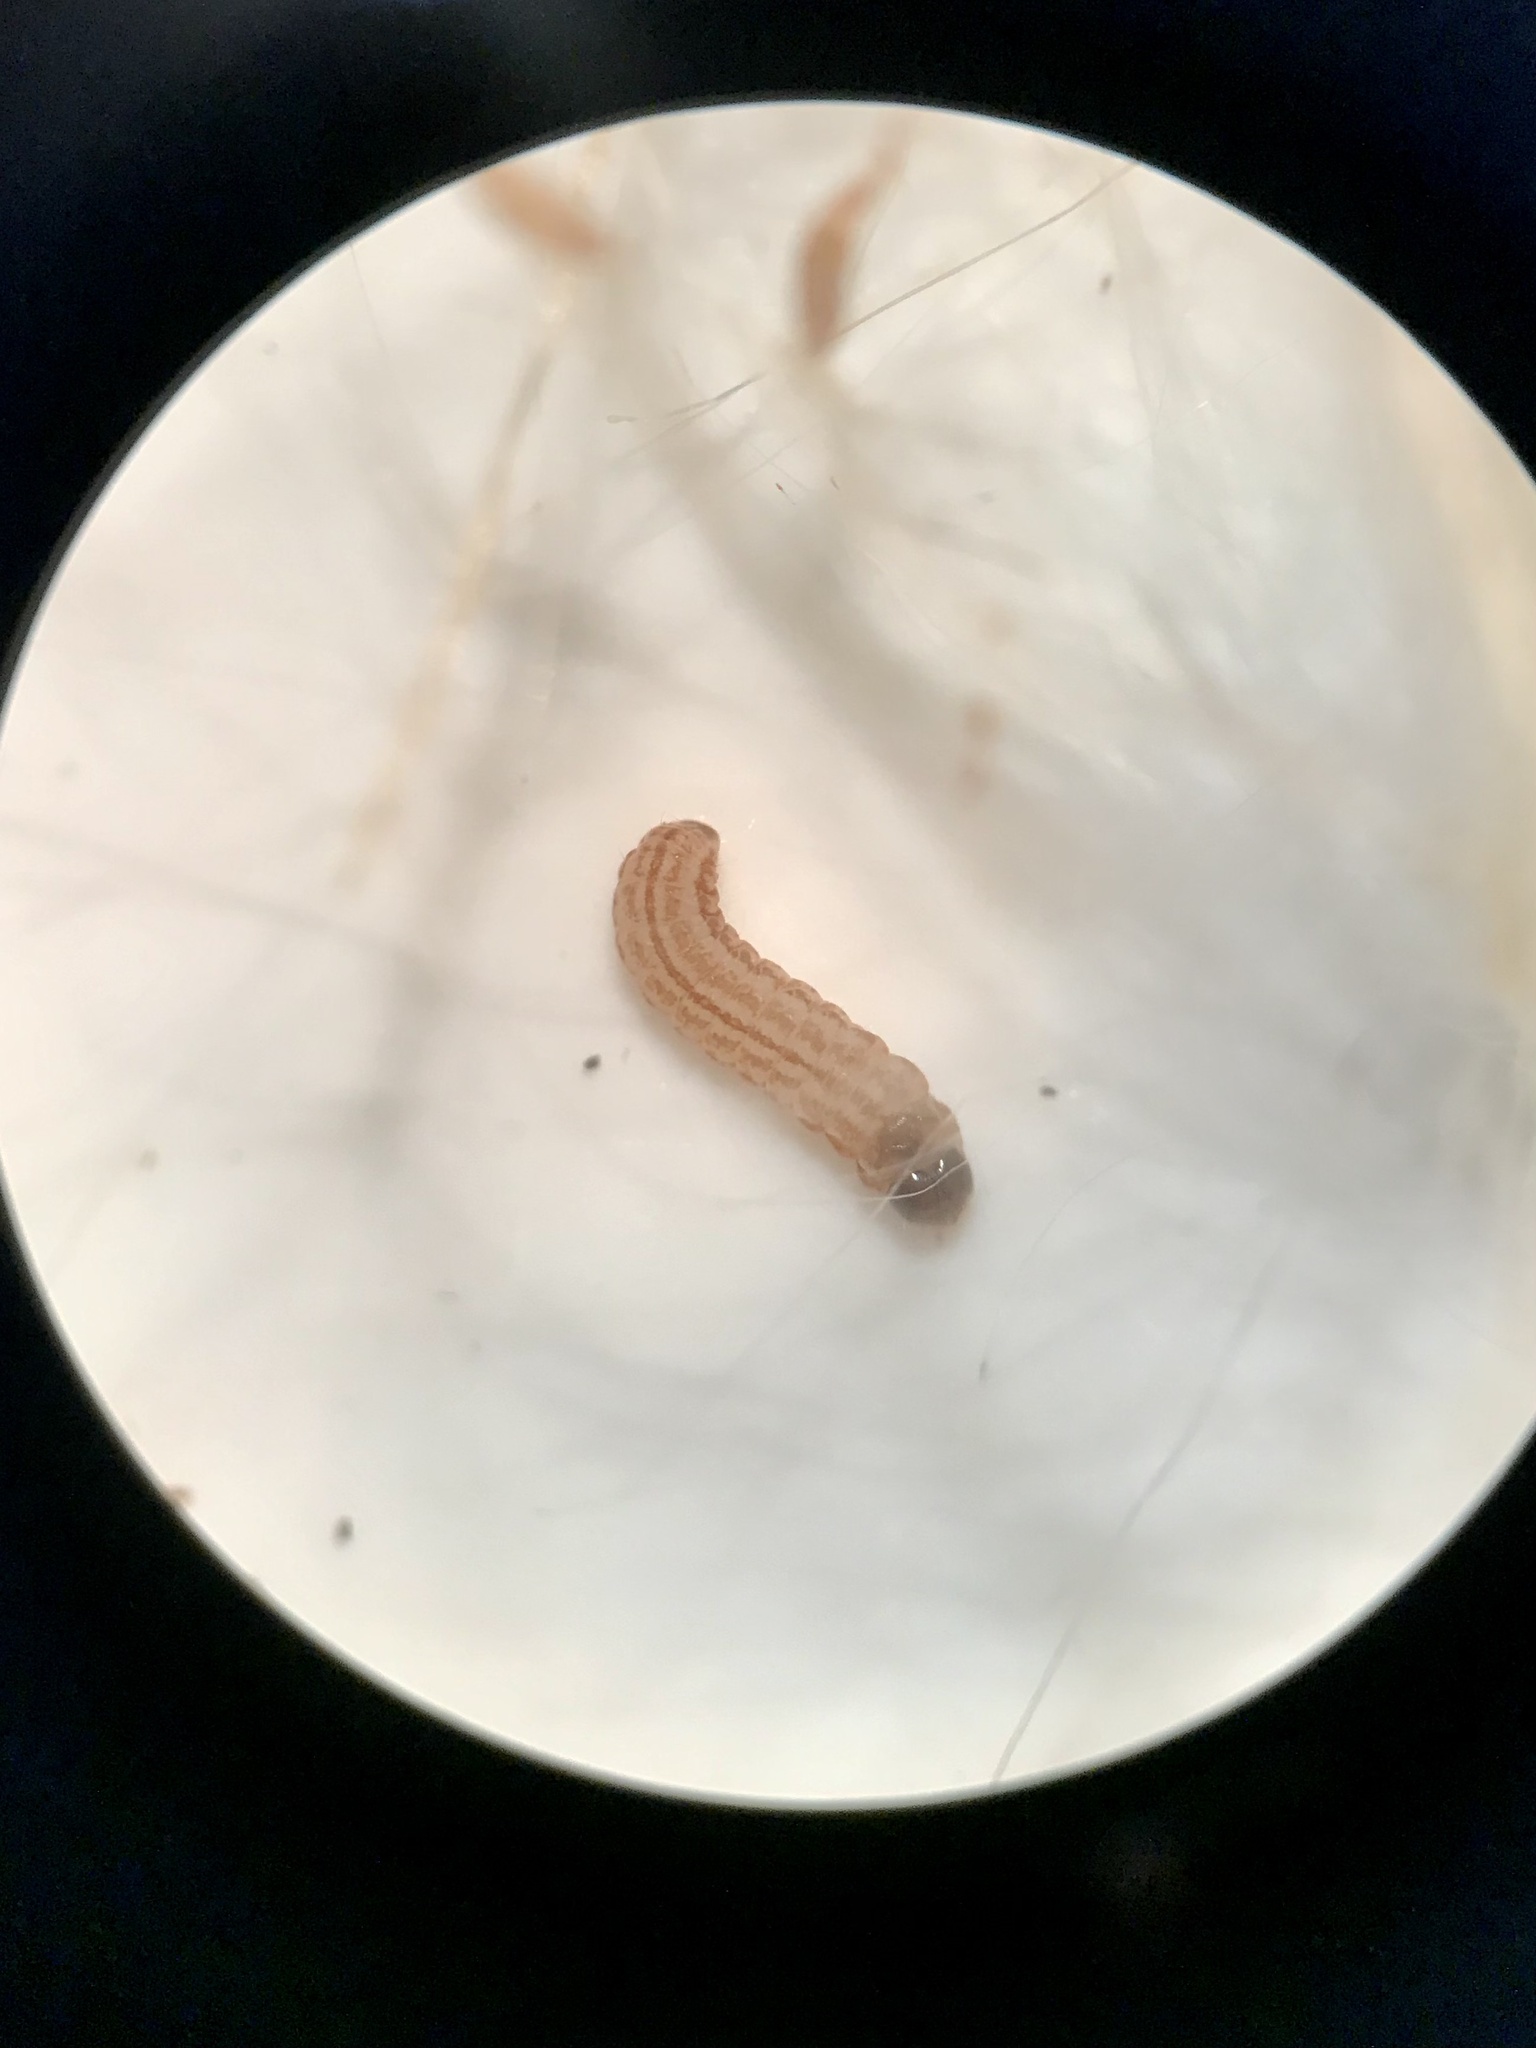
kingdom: Animalia
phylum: Arthropoda
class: Insecta
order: Lepidoptera
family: Cosmopterigidae
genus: Limnaecia
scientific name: Limnaecia phragmitella
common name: Bulrush cosmet
